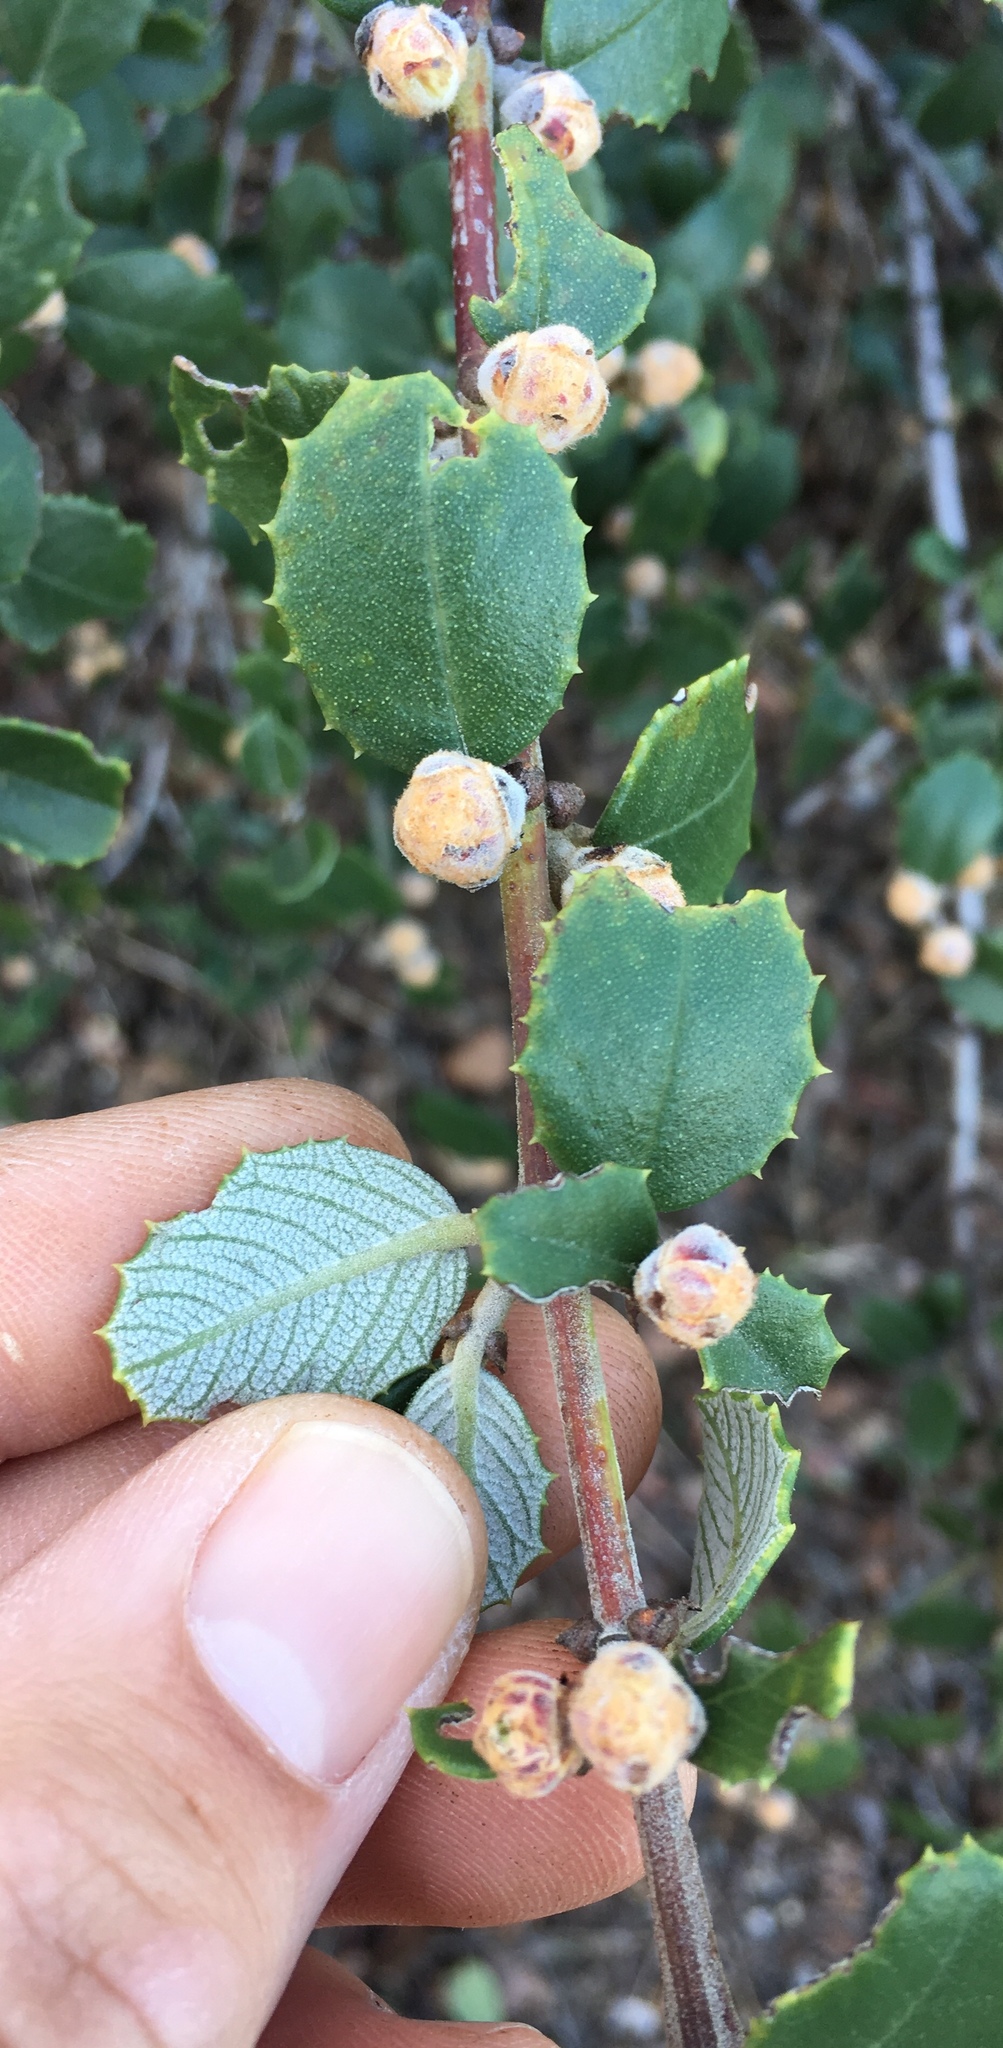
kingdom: Plantae
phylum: Tracheophyta
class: Magnoliopsida
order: Rosales
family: Rhamnaceae
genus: Ceanothus
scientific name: Ceanothus crassifolius
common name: Hoaryleaf ceanothus
